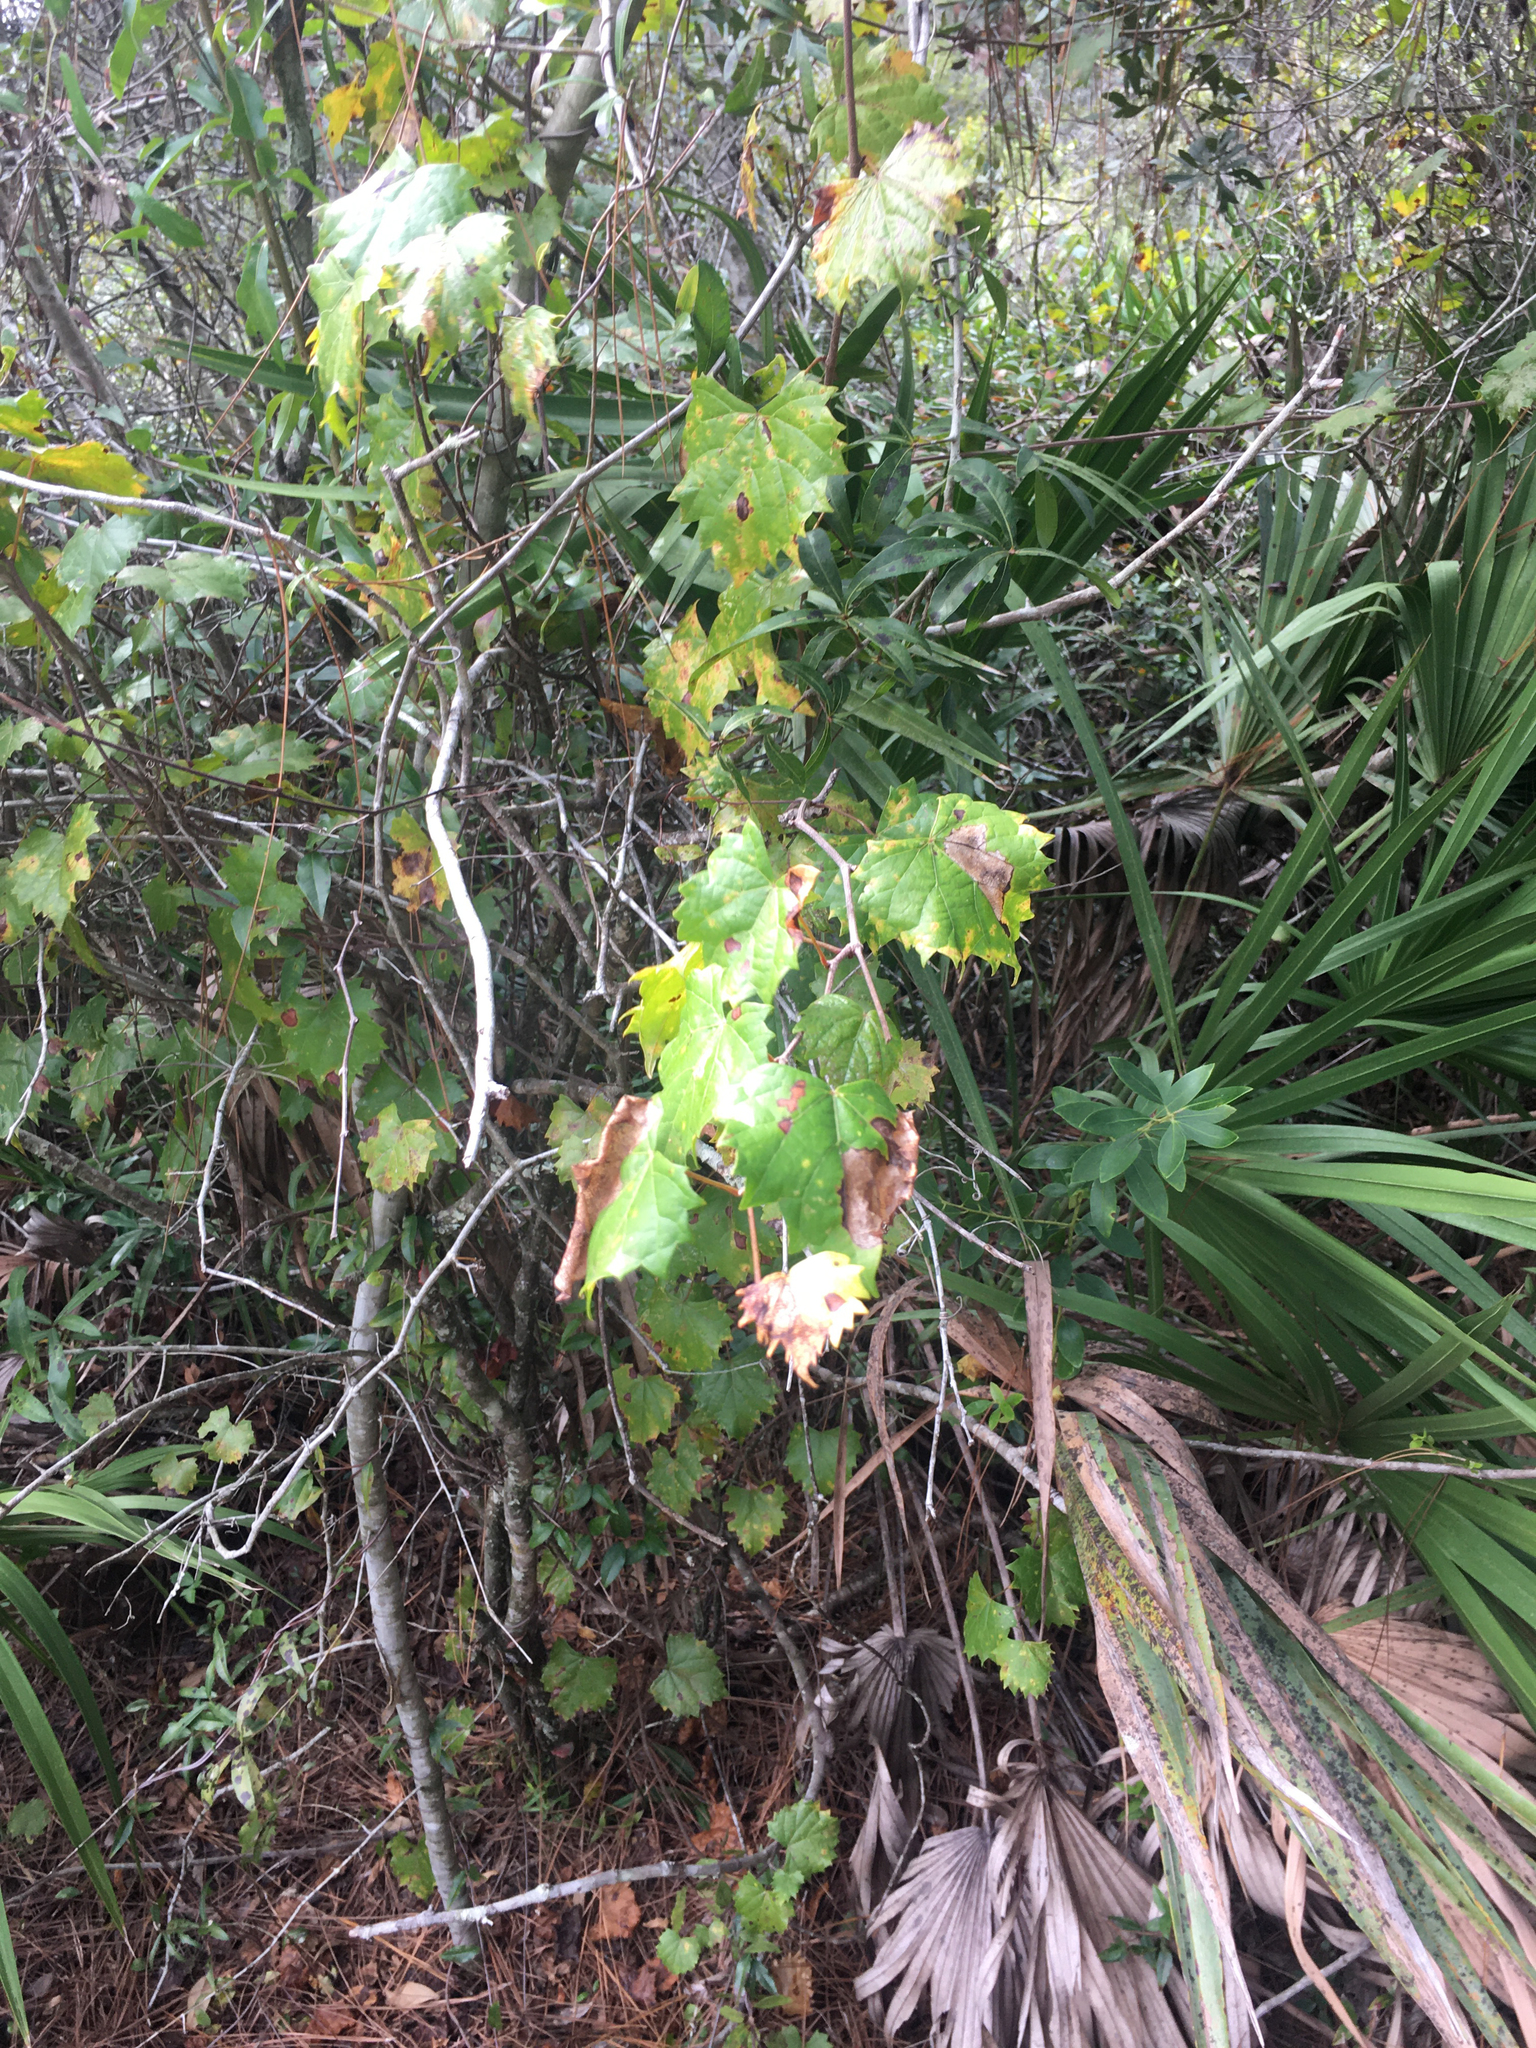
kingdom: Plantae
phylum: Tracheophyta
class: Magnoliopsida
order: Vitales
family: Vitaceae
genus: Vitis
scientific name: Vitis rotundifolia
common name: Muscadine grape
